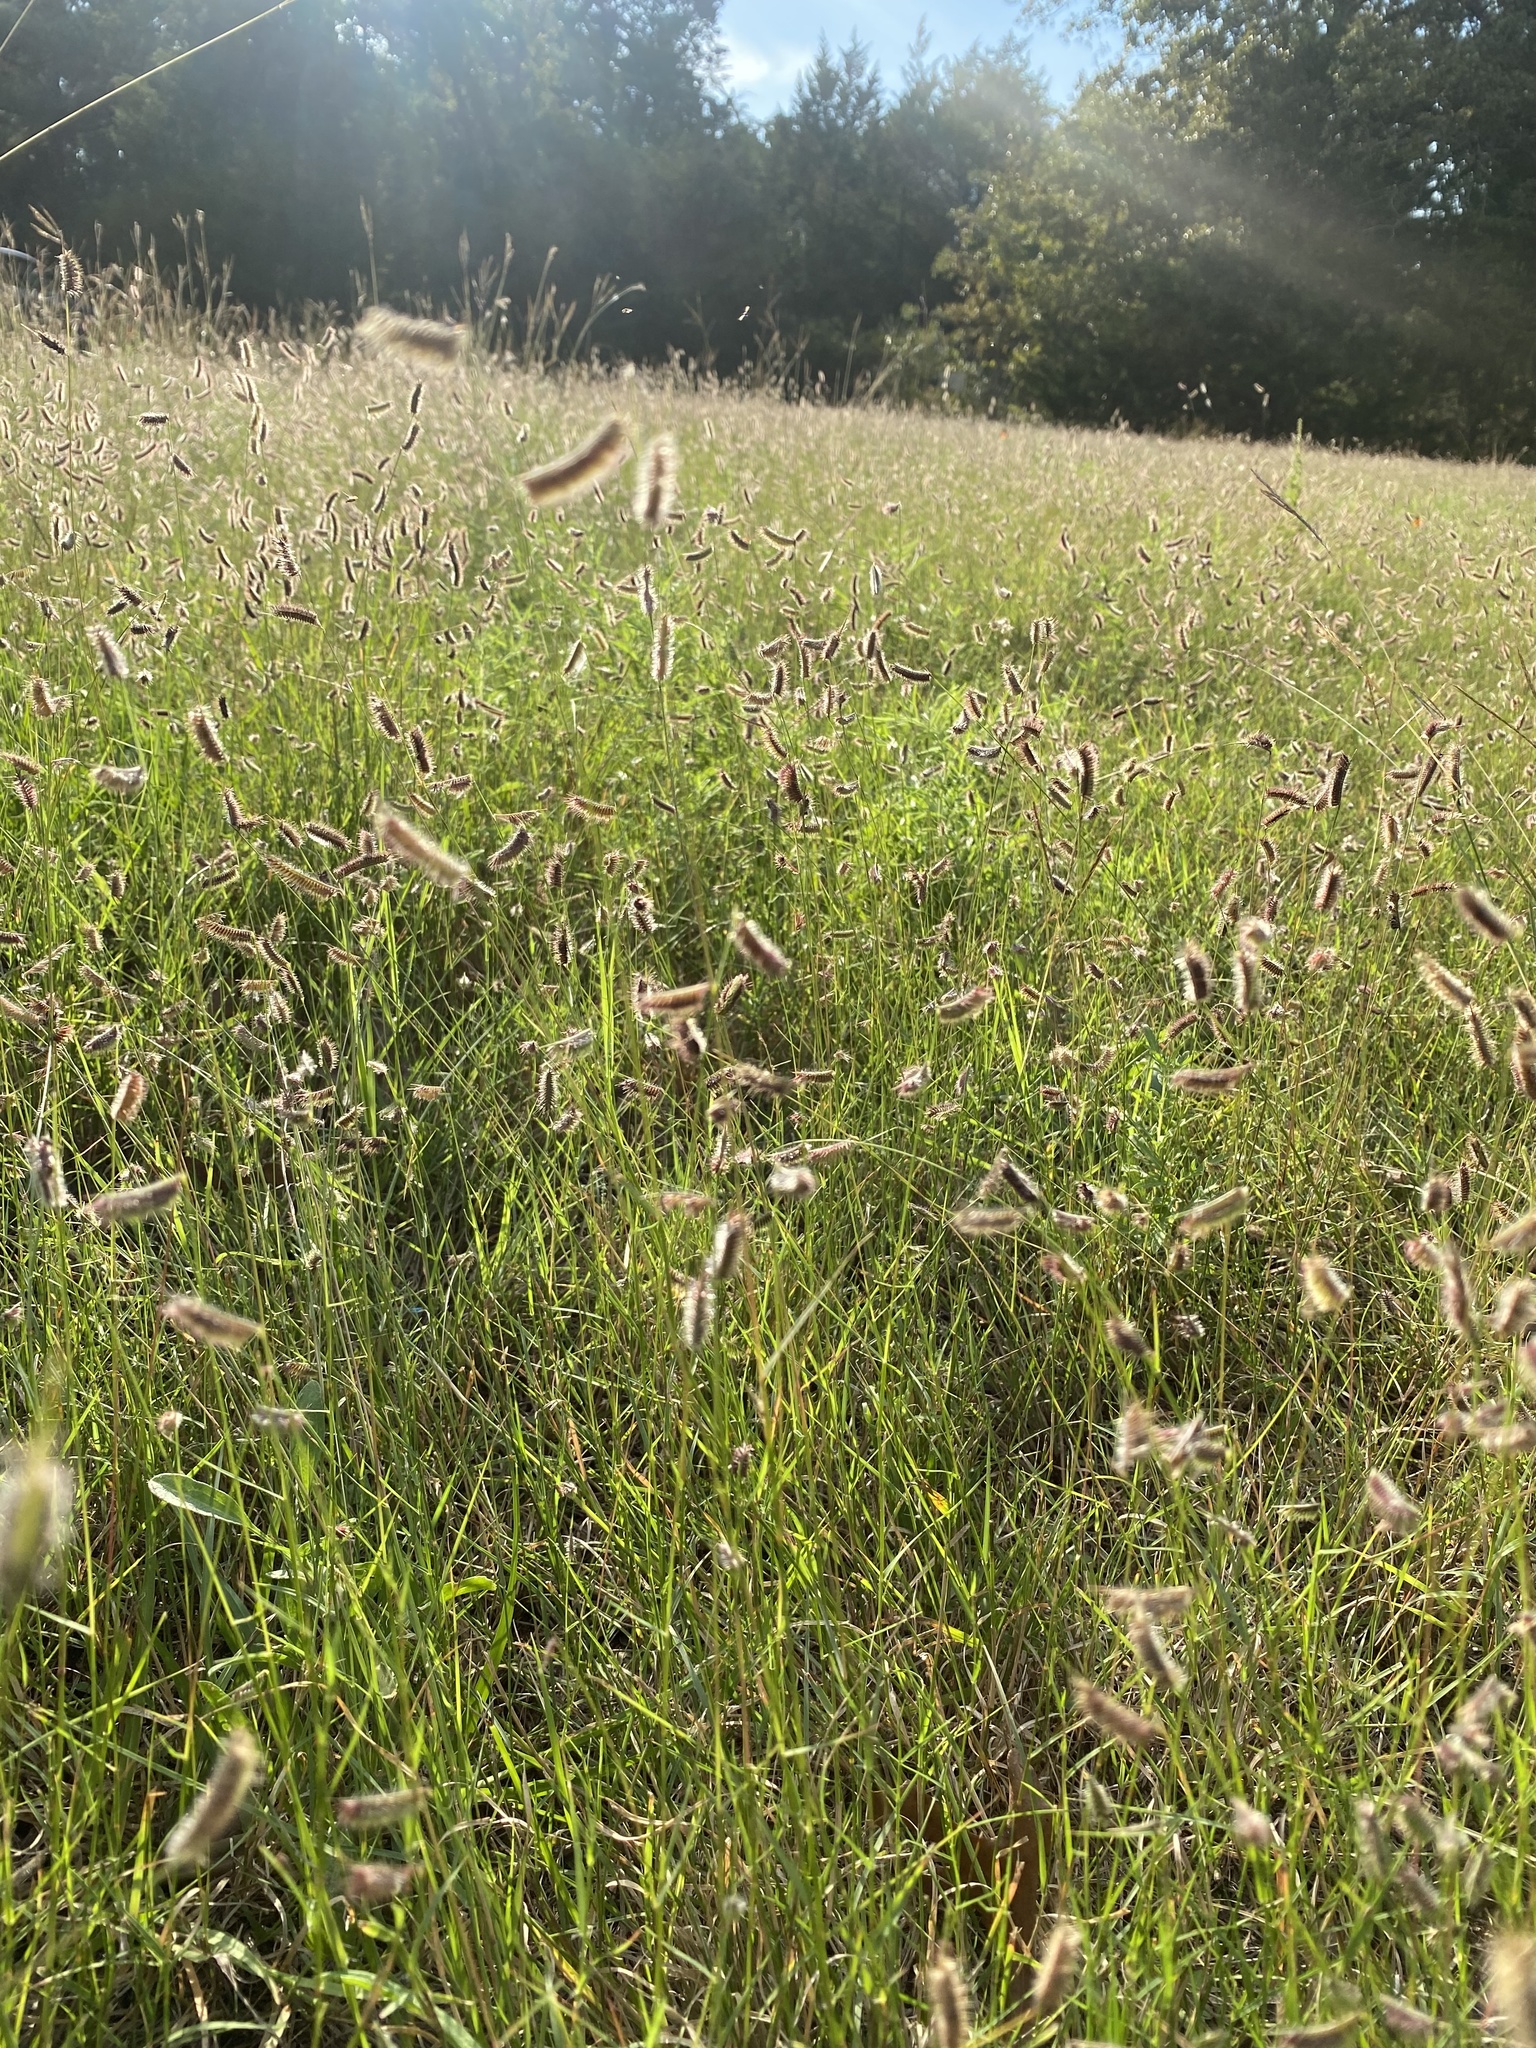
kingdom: Plantae
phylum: Tracheophyta
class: Liliopsida
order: Poales
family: Poaceae
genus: Bouteloua
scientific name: Bouteloua hirsuta
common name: Hairy grama
